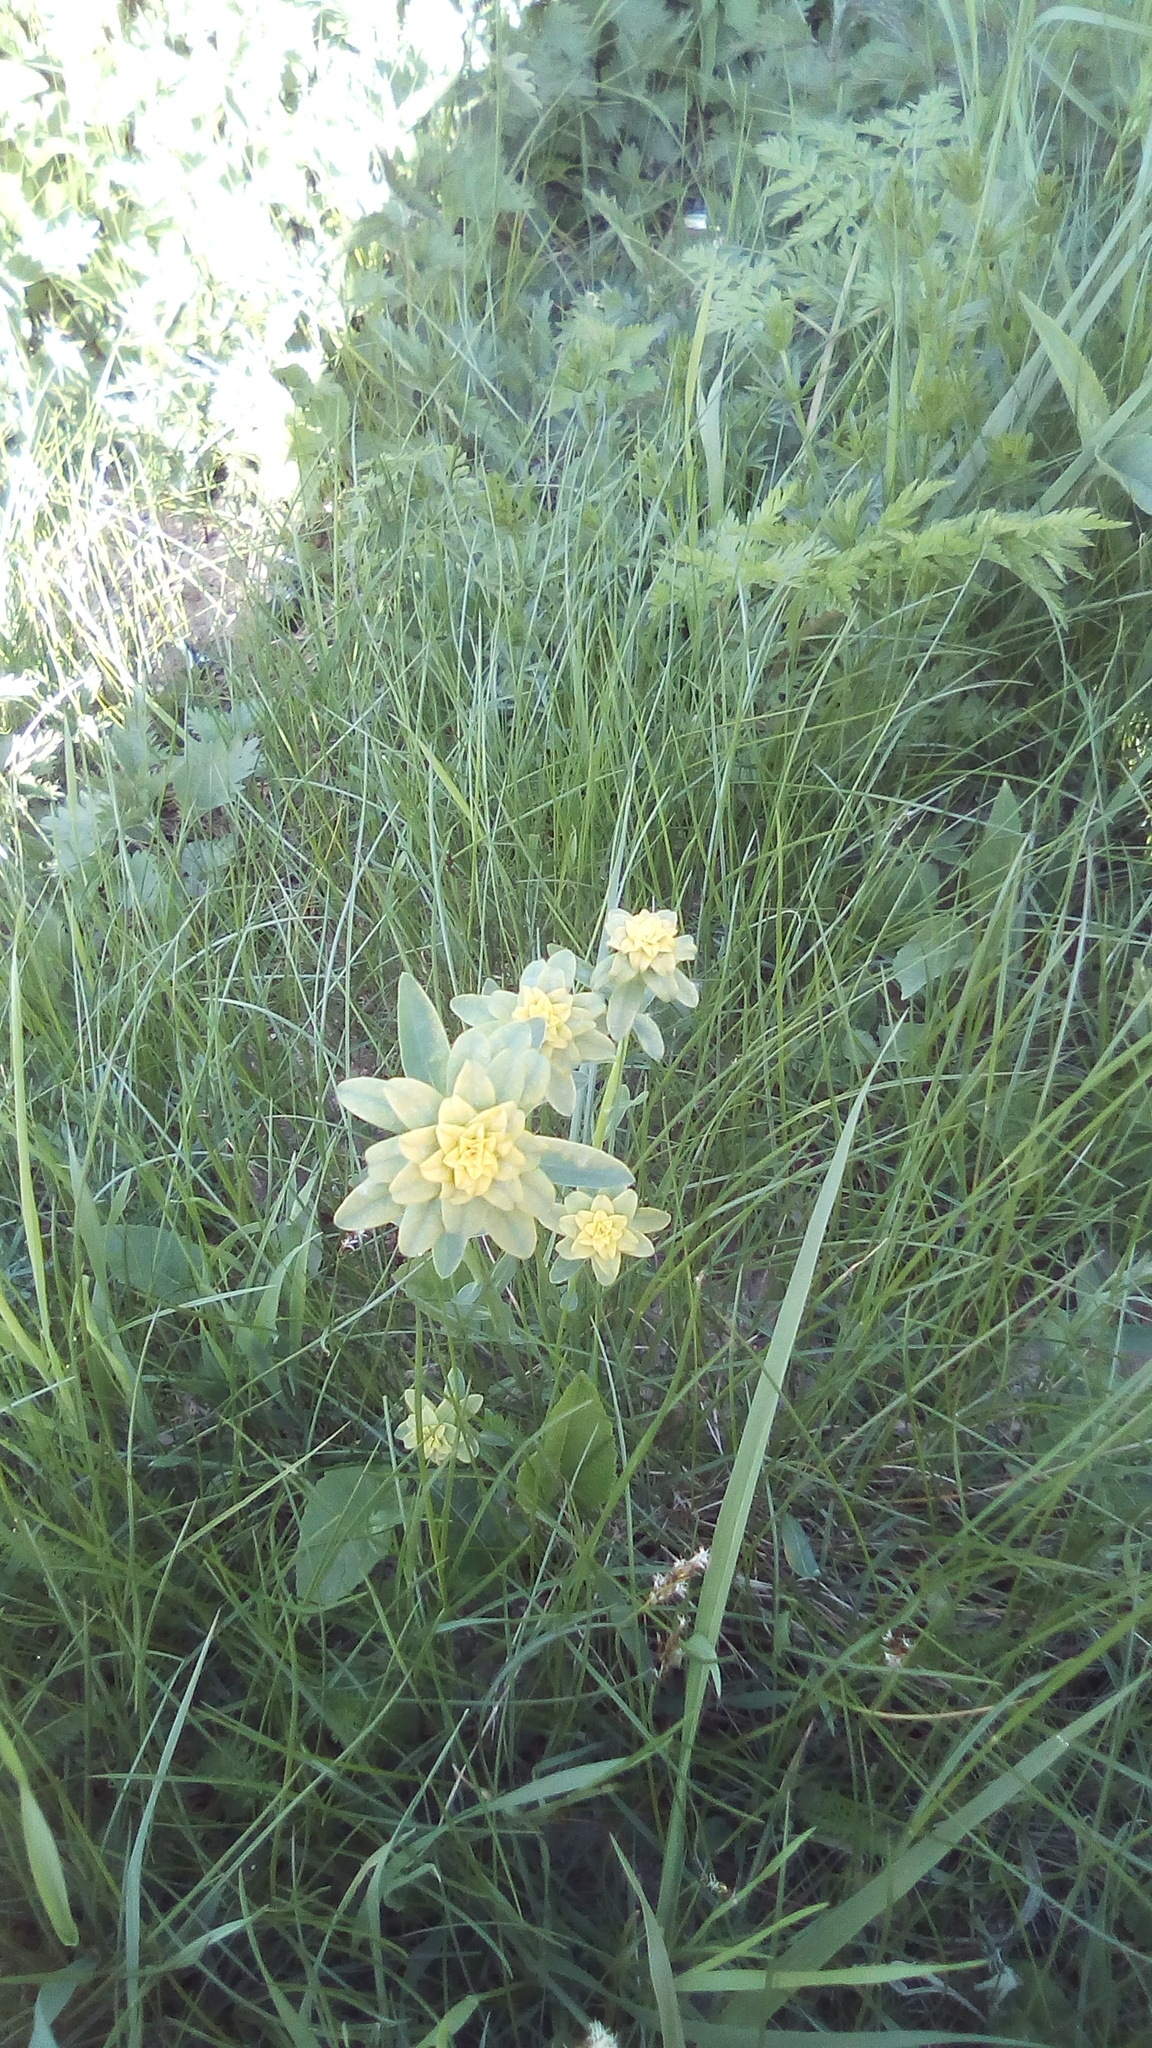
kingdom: Plantae
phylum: Tracheophyta
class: Magnoliopsida
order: Malpighiales
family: Euphorbiaceae
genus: Euphorbia
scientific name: Euphorbia virgata
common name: Leafy spurge
